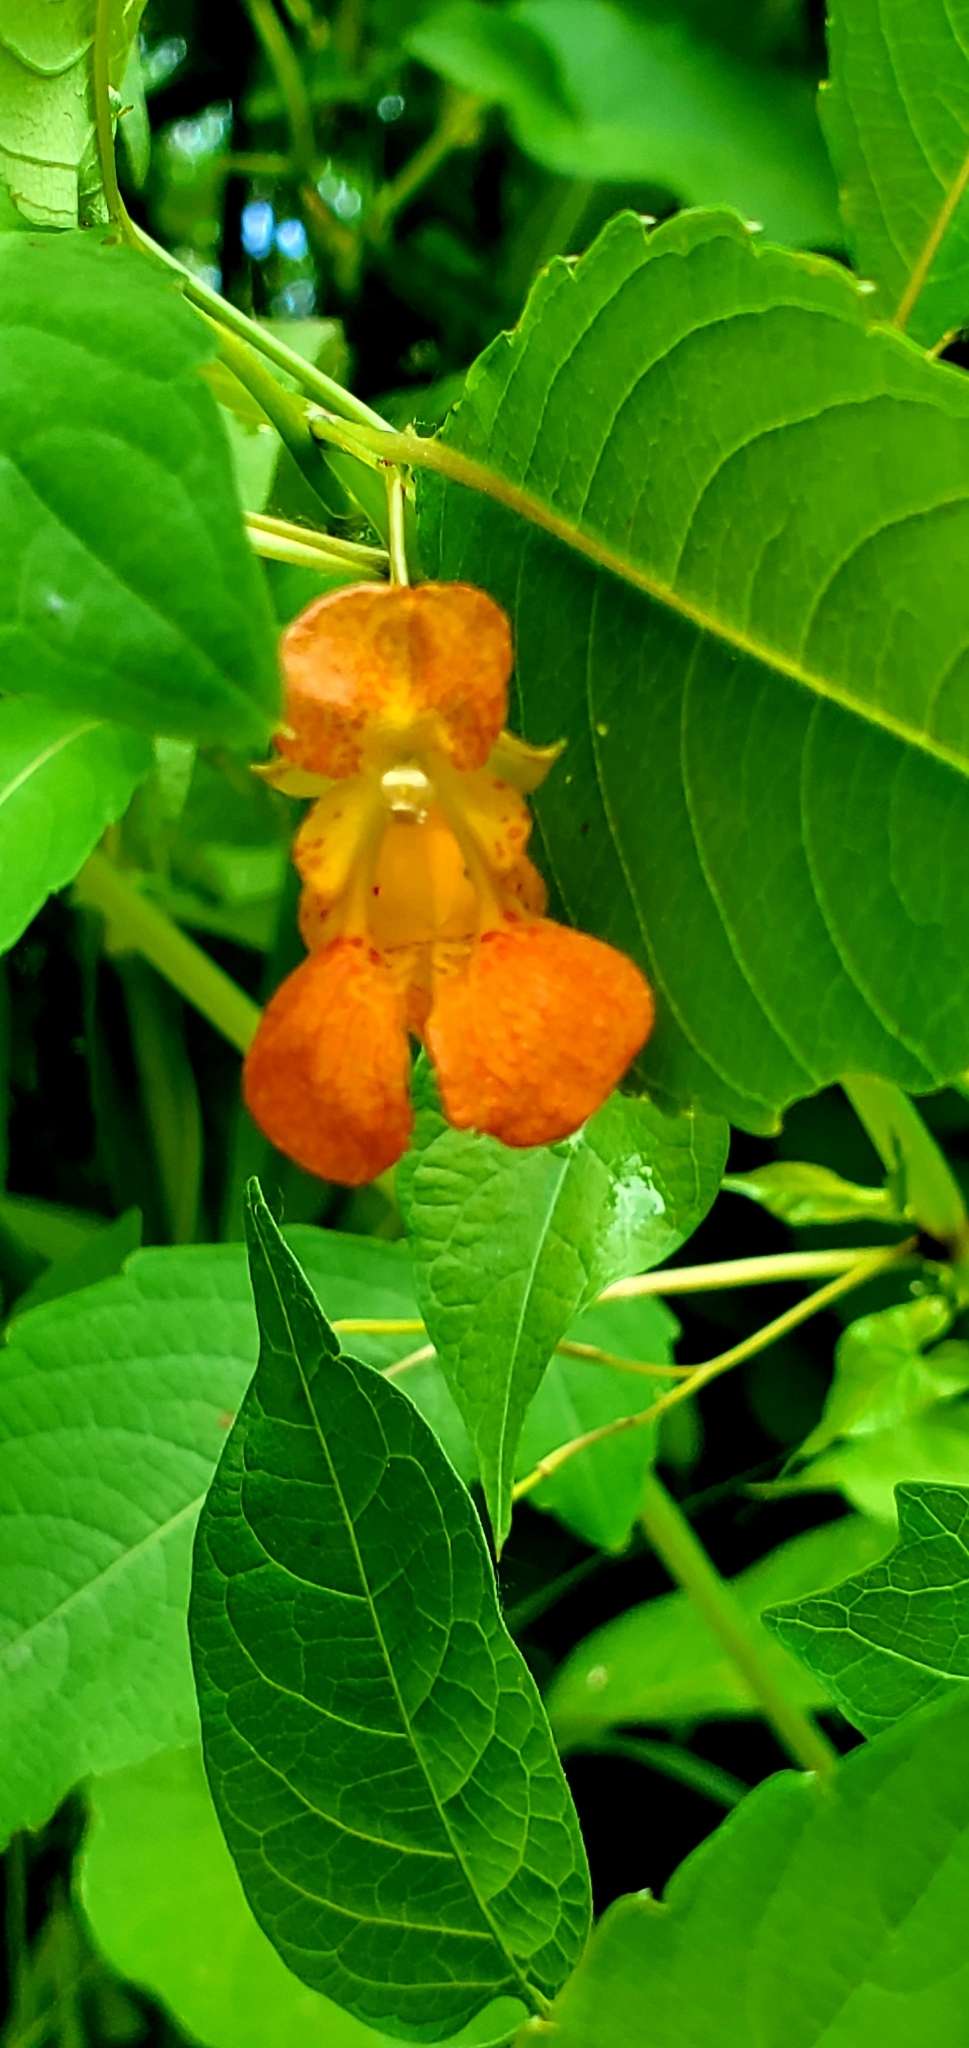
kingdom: Plantae
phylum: Tracheophyta
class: Magnoliopsida
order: Ericales
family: Balsaminaceae
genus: Impatiens
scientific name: Impatiens capensis
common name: Orange balsam
